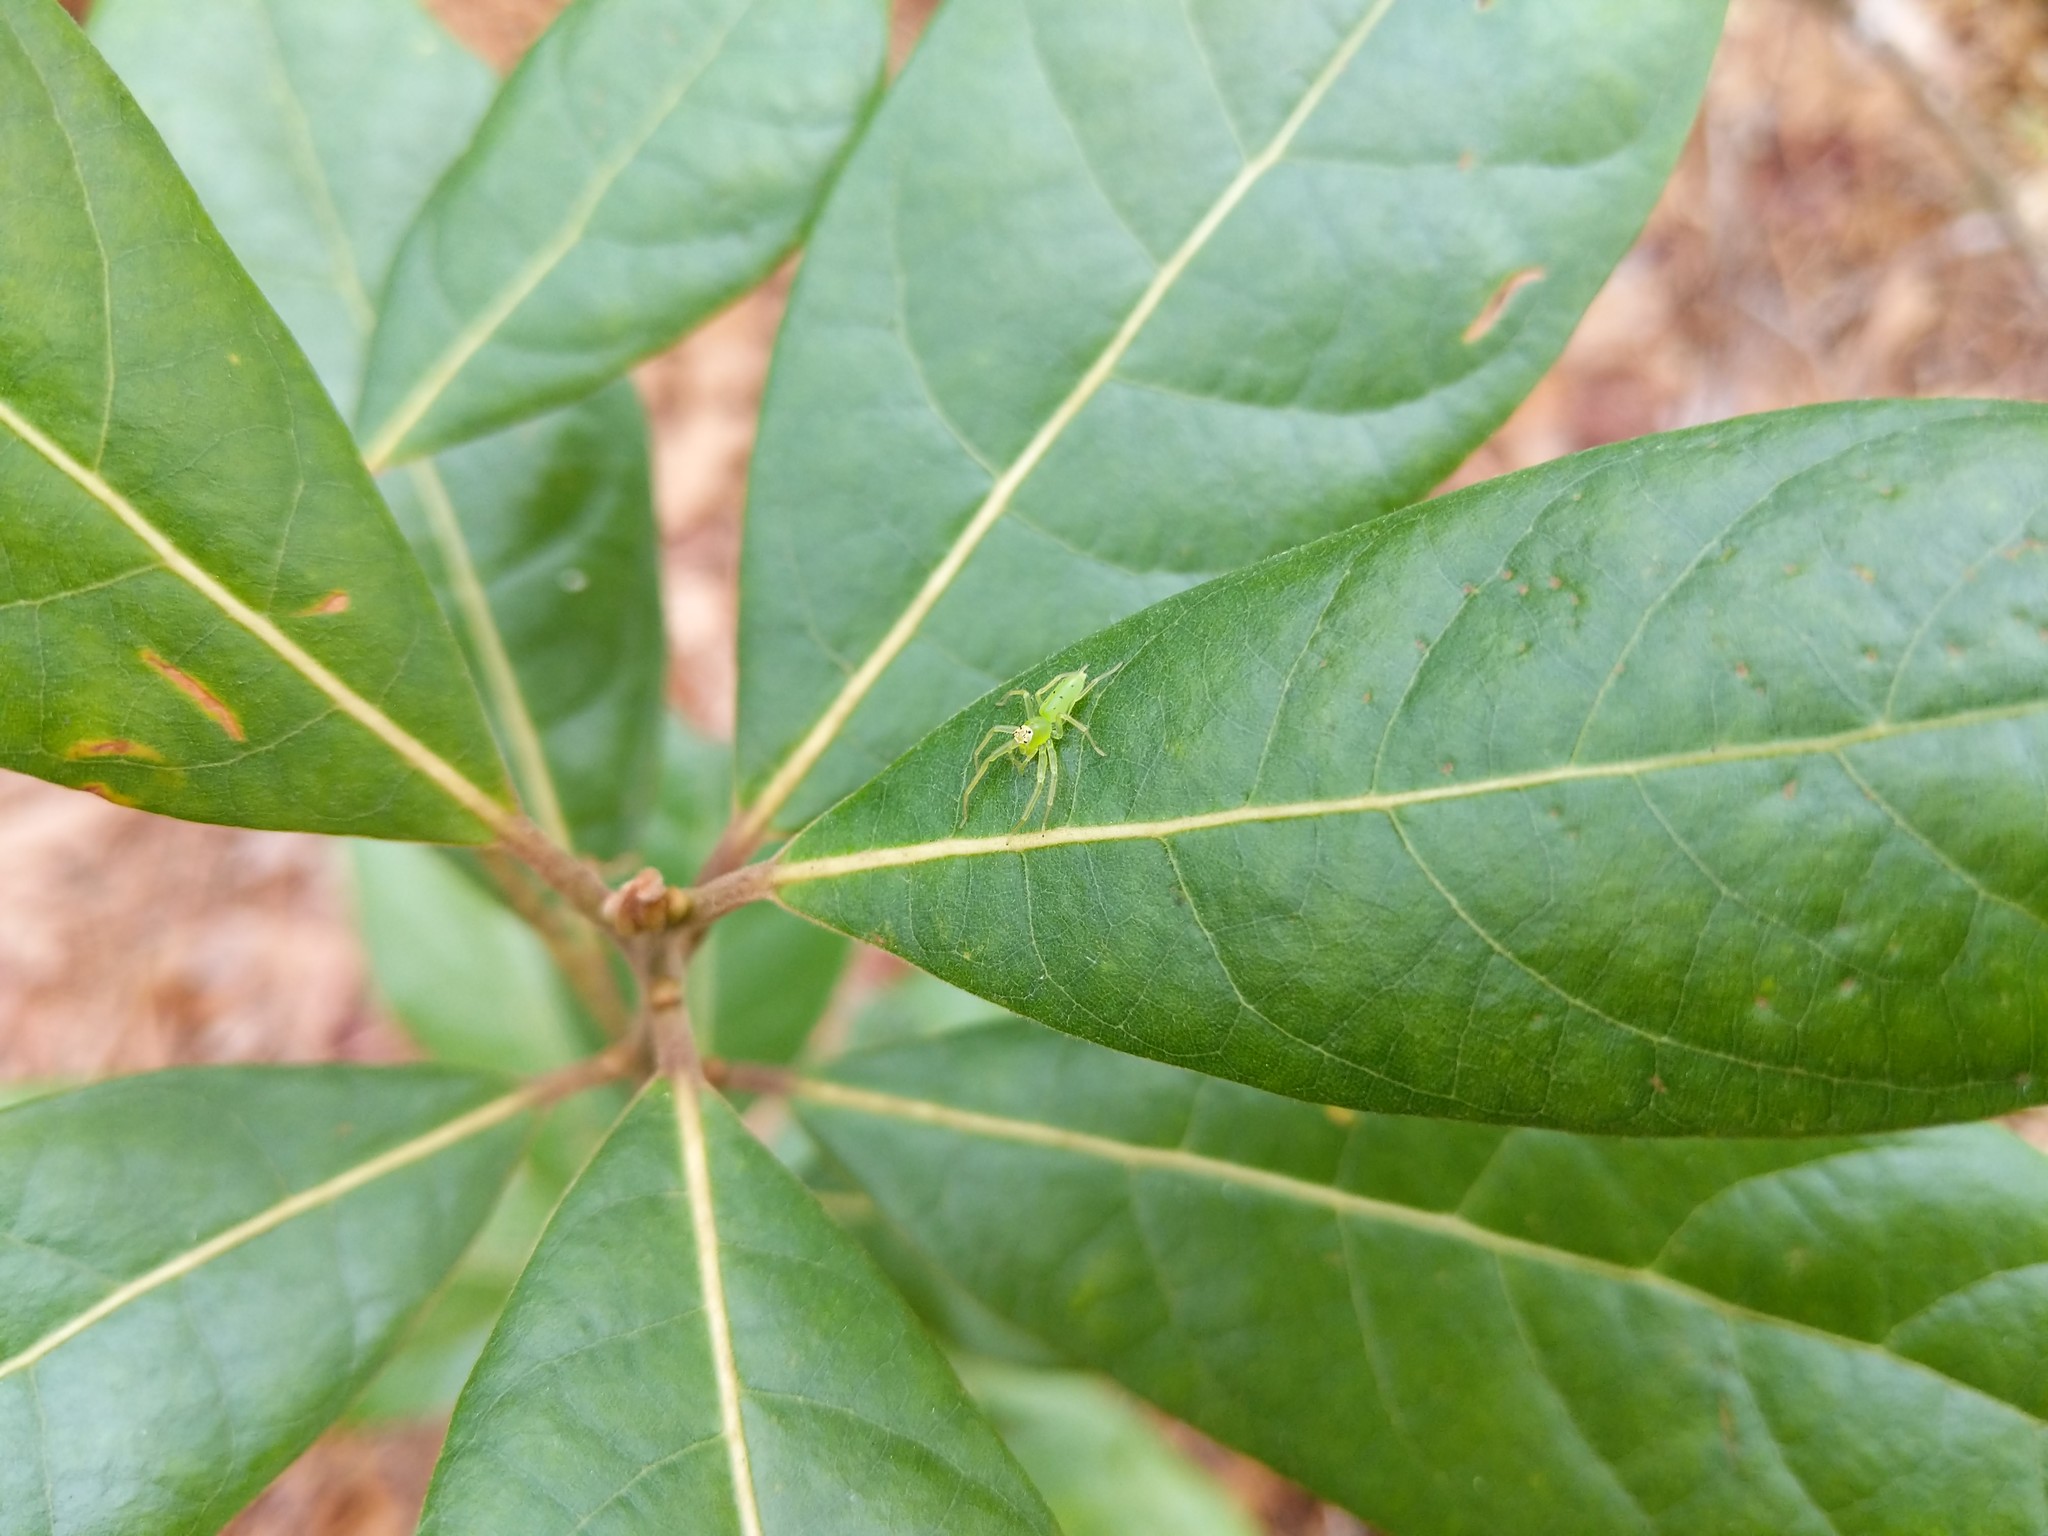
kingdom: Animalia
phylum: Arthropoda
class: Arachnida
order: Araneae
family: Salticidae
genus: Lyssomanes
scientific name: Lyssomanes viridis
